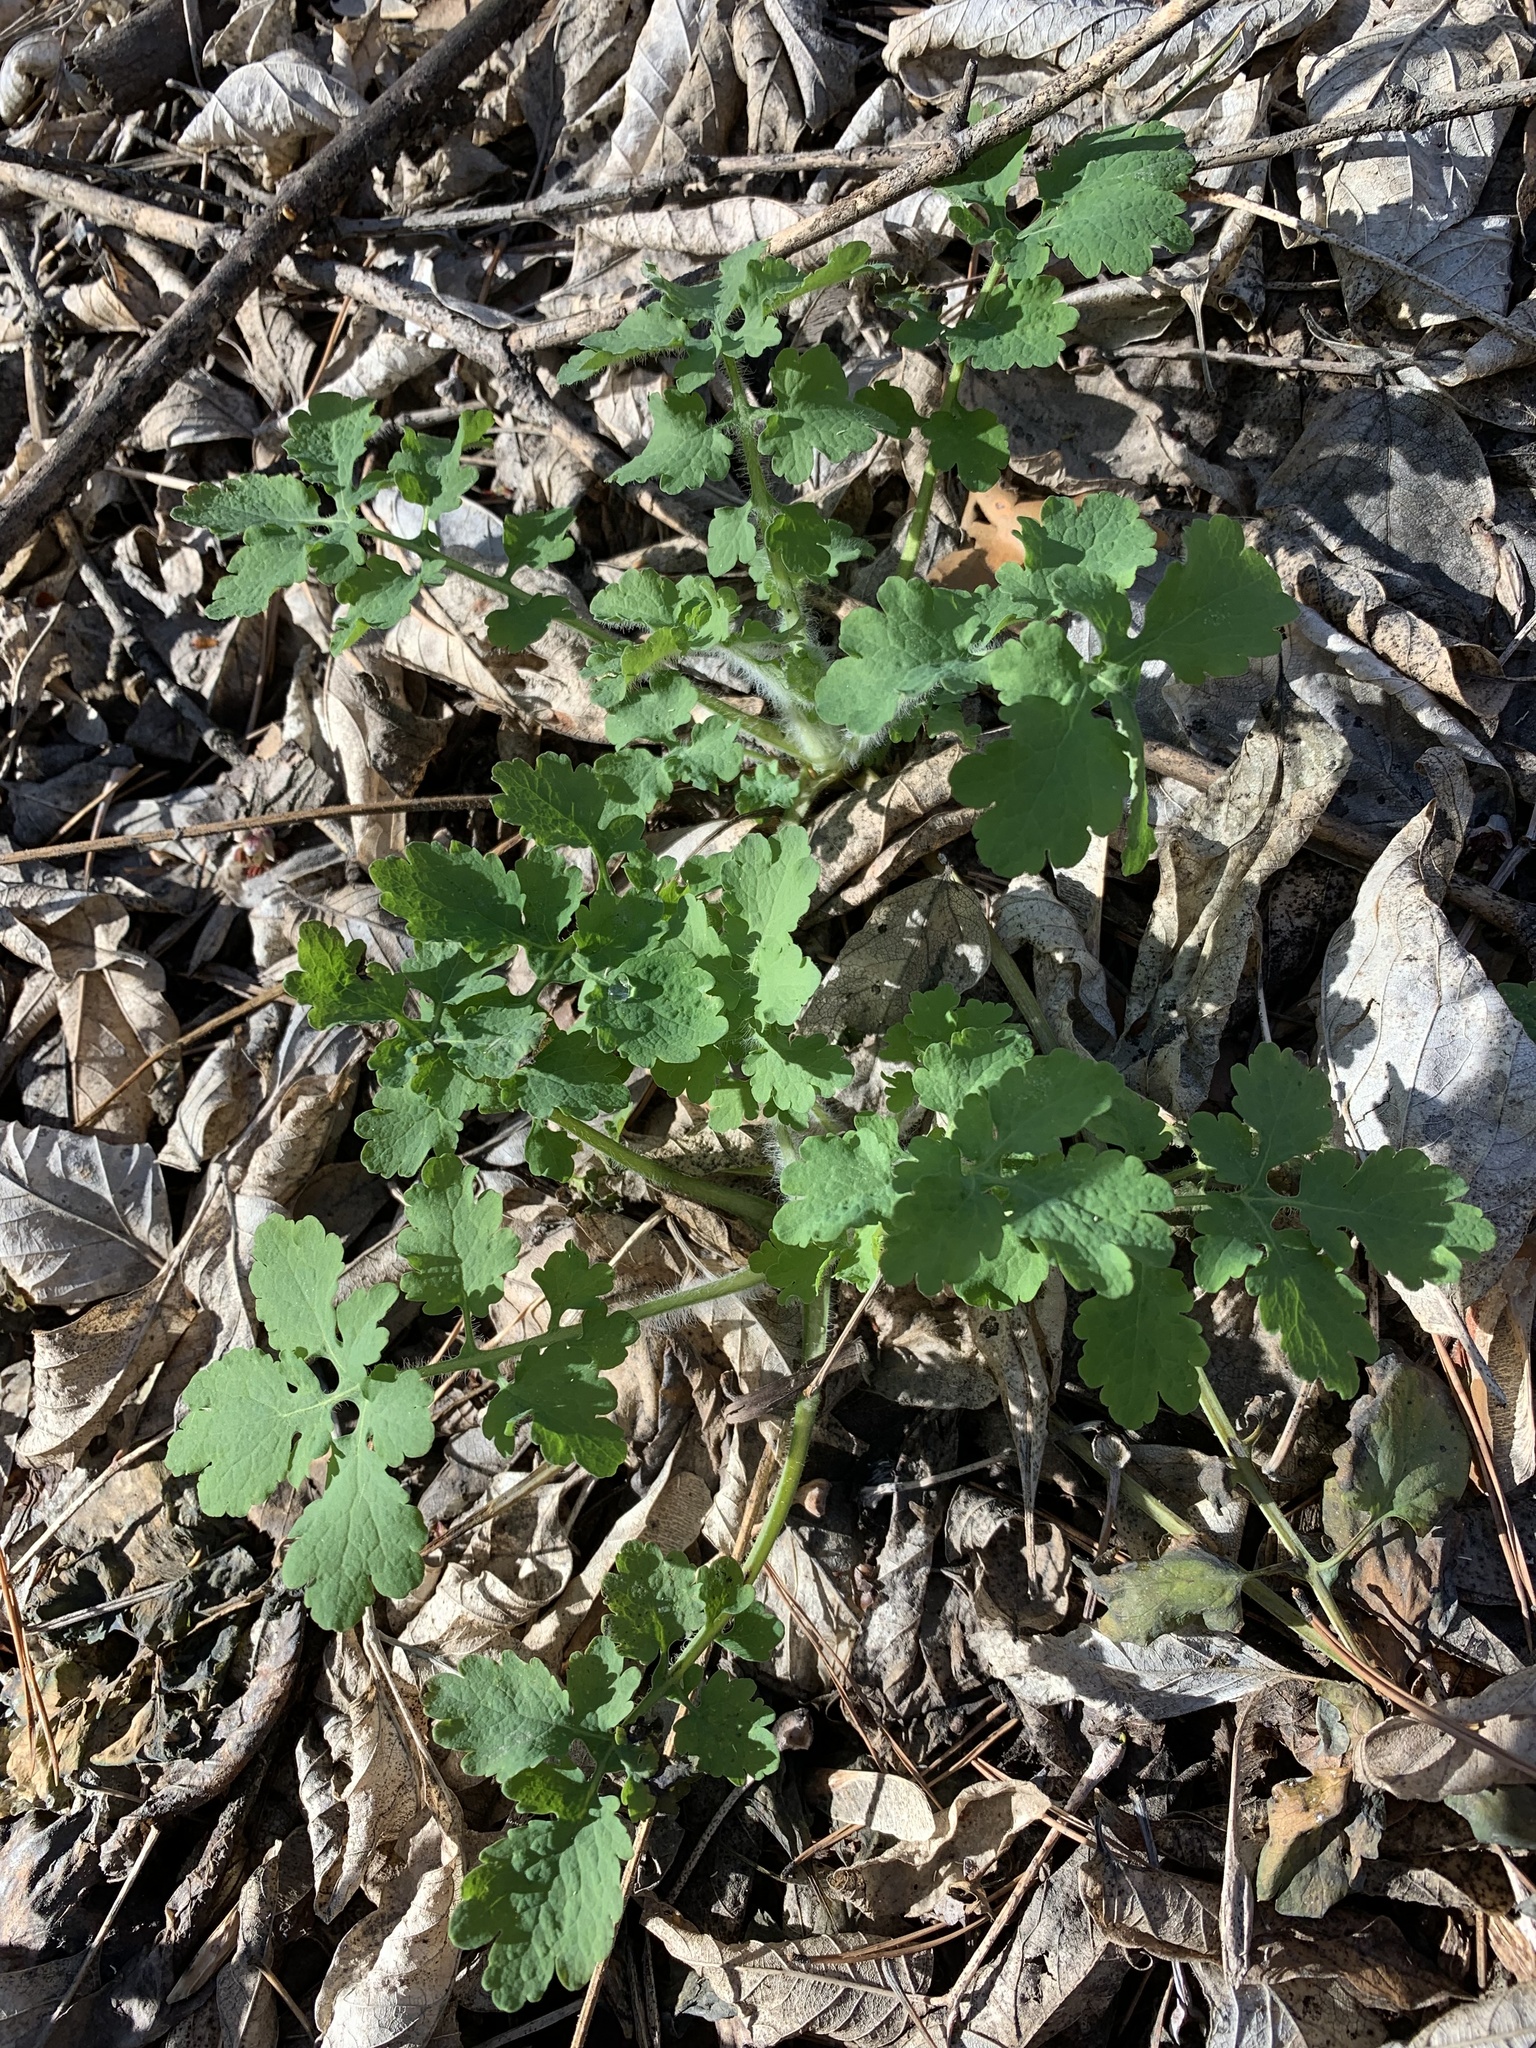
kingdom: Plantae
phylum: Tracheophyta
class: Magnoliopsida
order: Ranunculales
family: Papaveraceae
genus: Chelidonium
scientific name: Chelidonium majus
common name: Greater celandine
